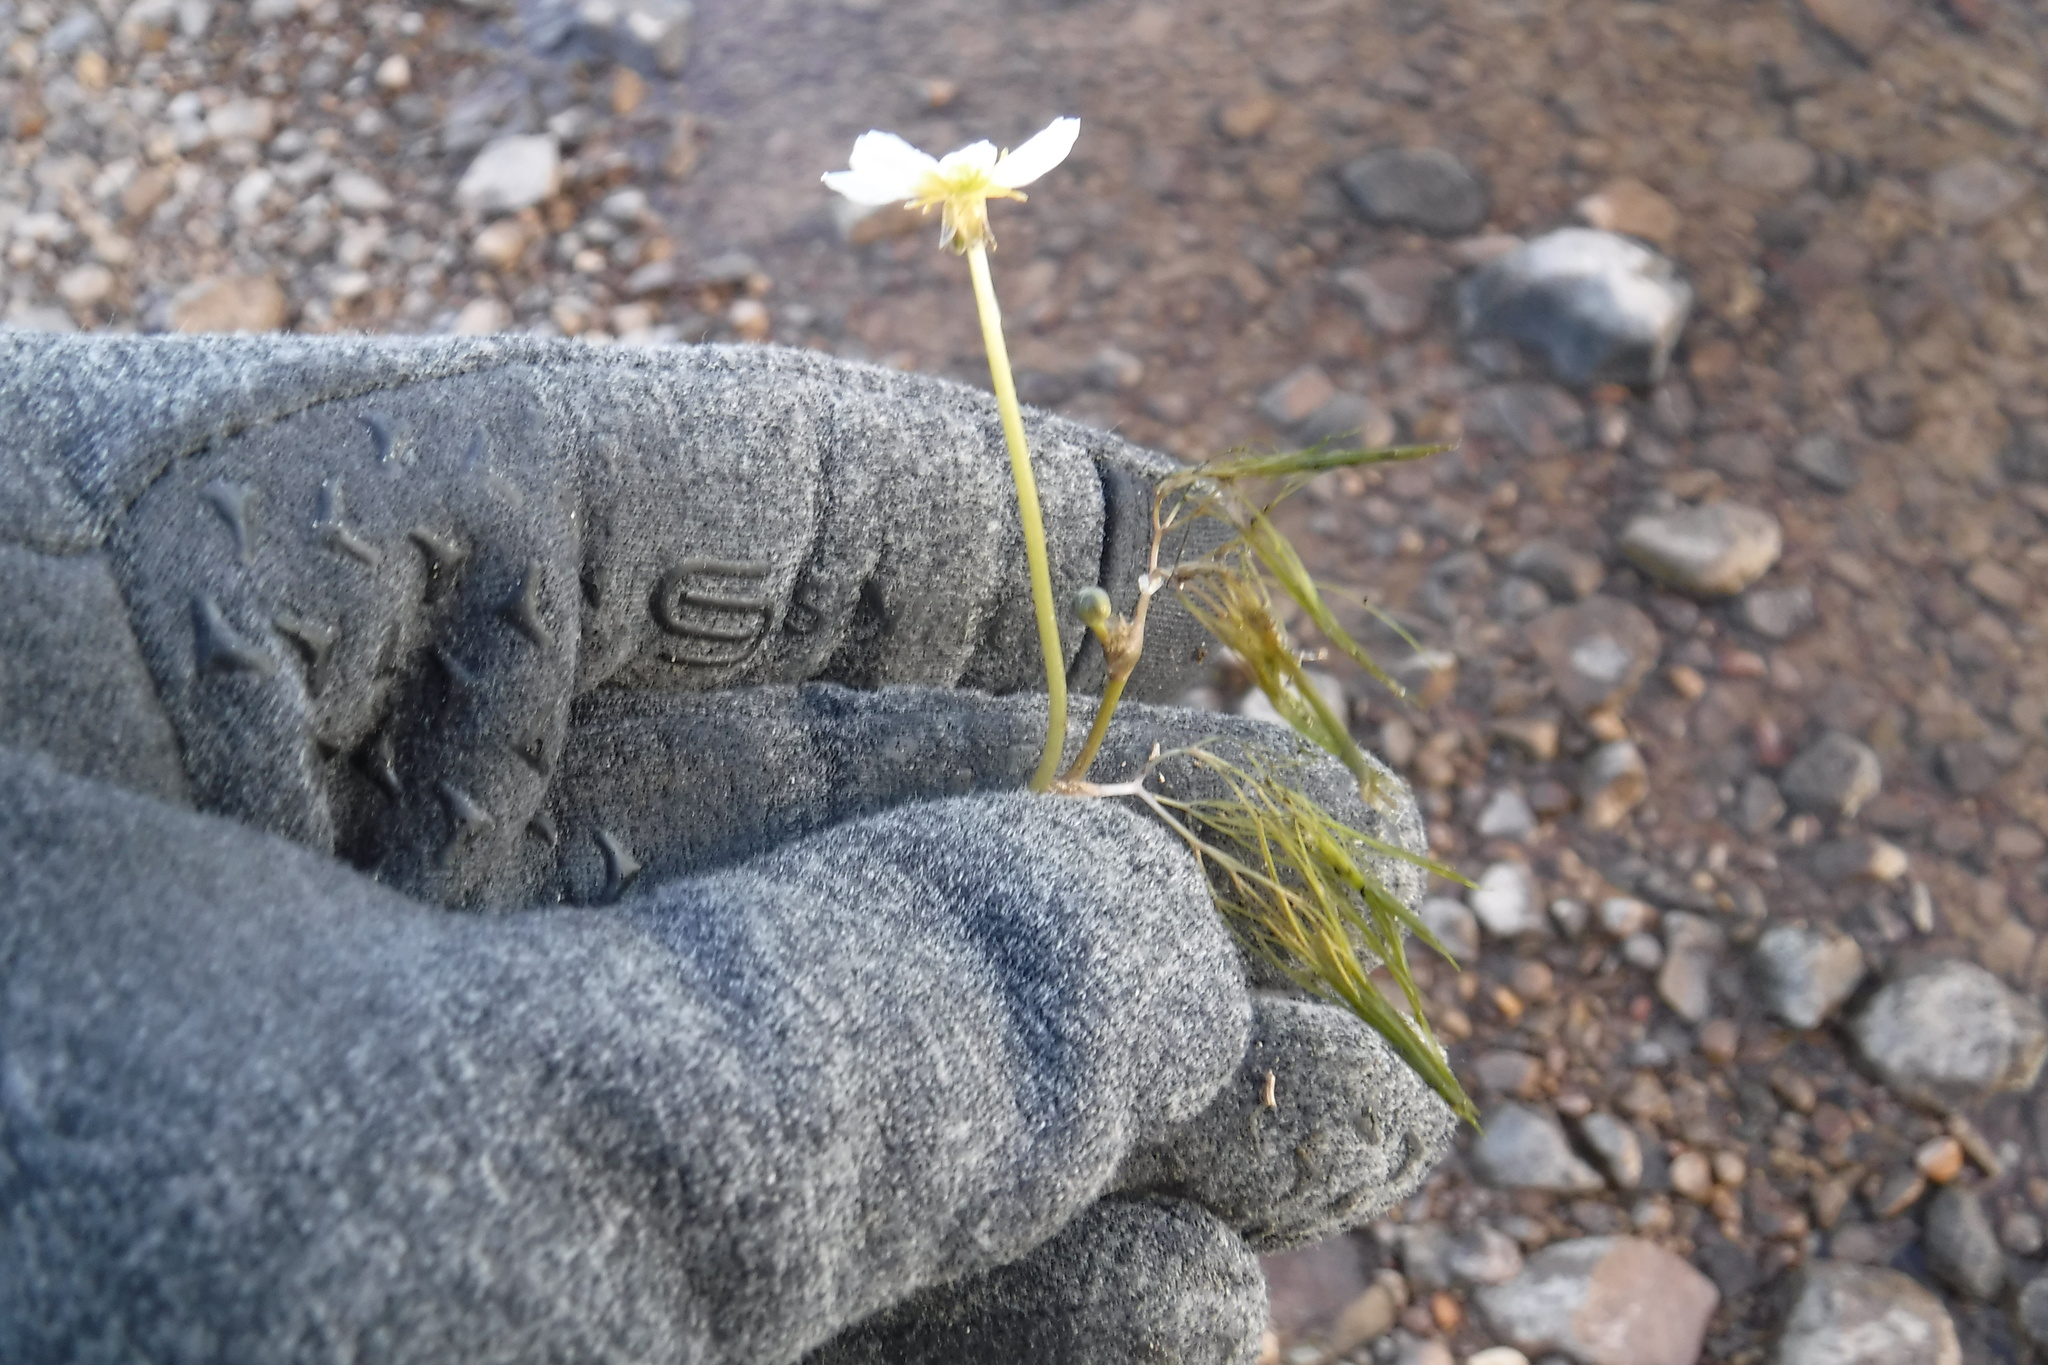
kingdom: Plantae
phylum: Tracheophyta
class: Magnoliopsida
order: Ranunculales
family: Ranunculaceae
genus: Ranunculus
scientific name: Ranunculus trichophyllus
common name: Thread-leaved water-crowfoot
